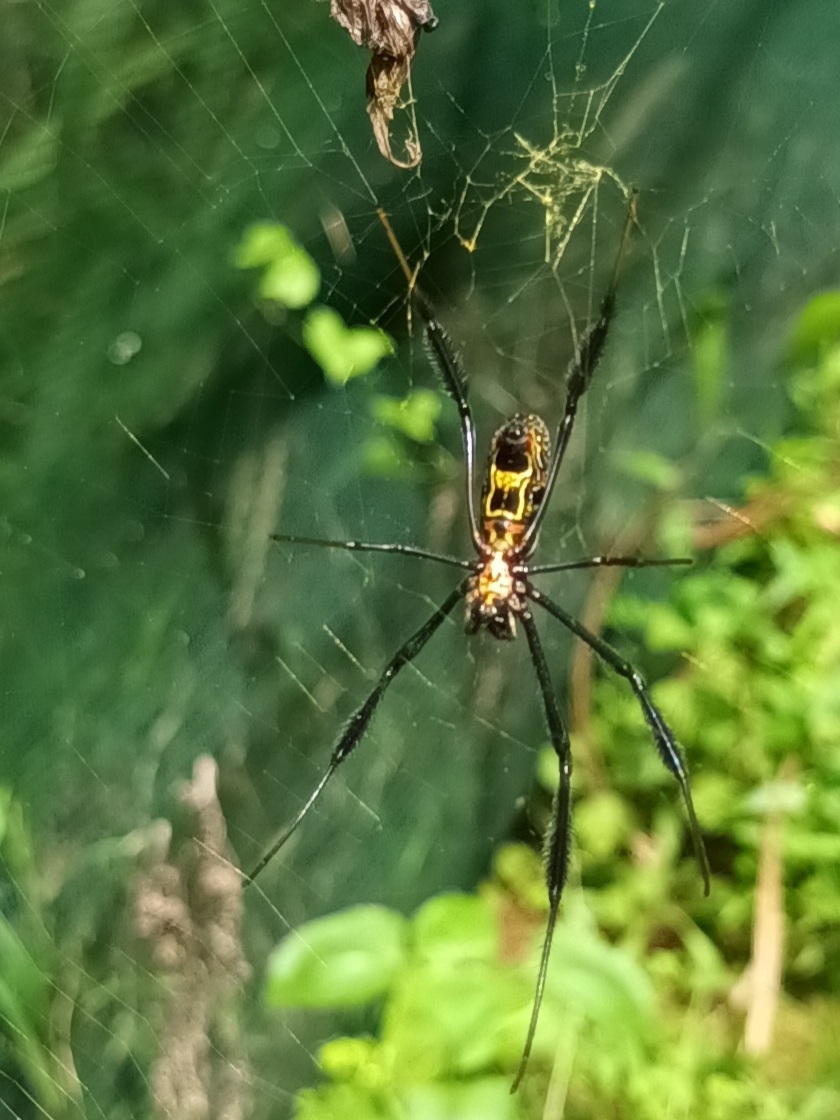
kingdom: Animalia
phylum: Arthropoda
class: Arachnida
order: Araneae
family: Araneidae
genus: Trichonephila
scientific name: Trichonephila fenestrata
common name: Hairy golden orb weaver
